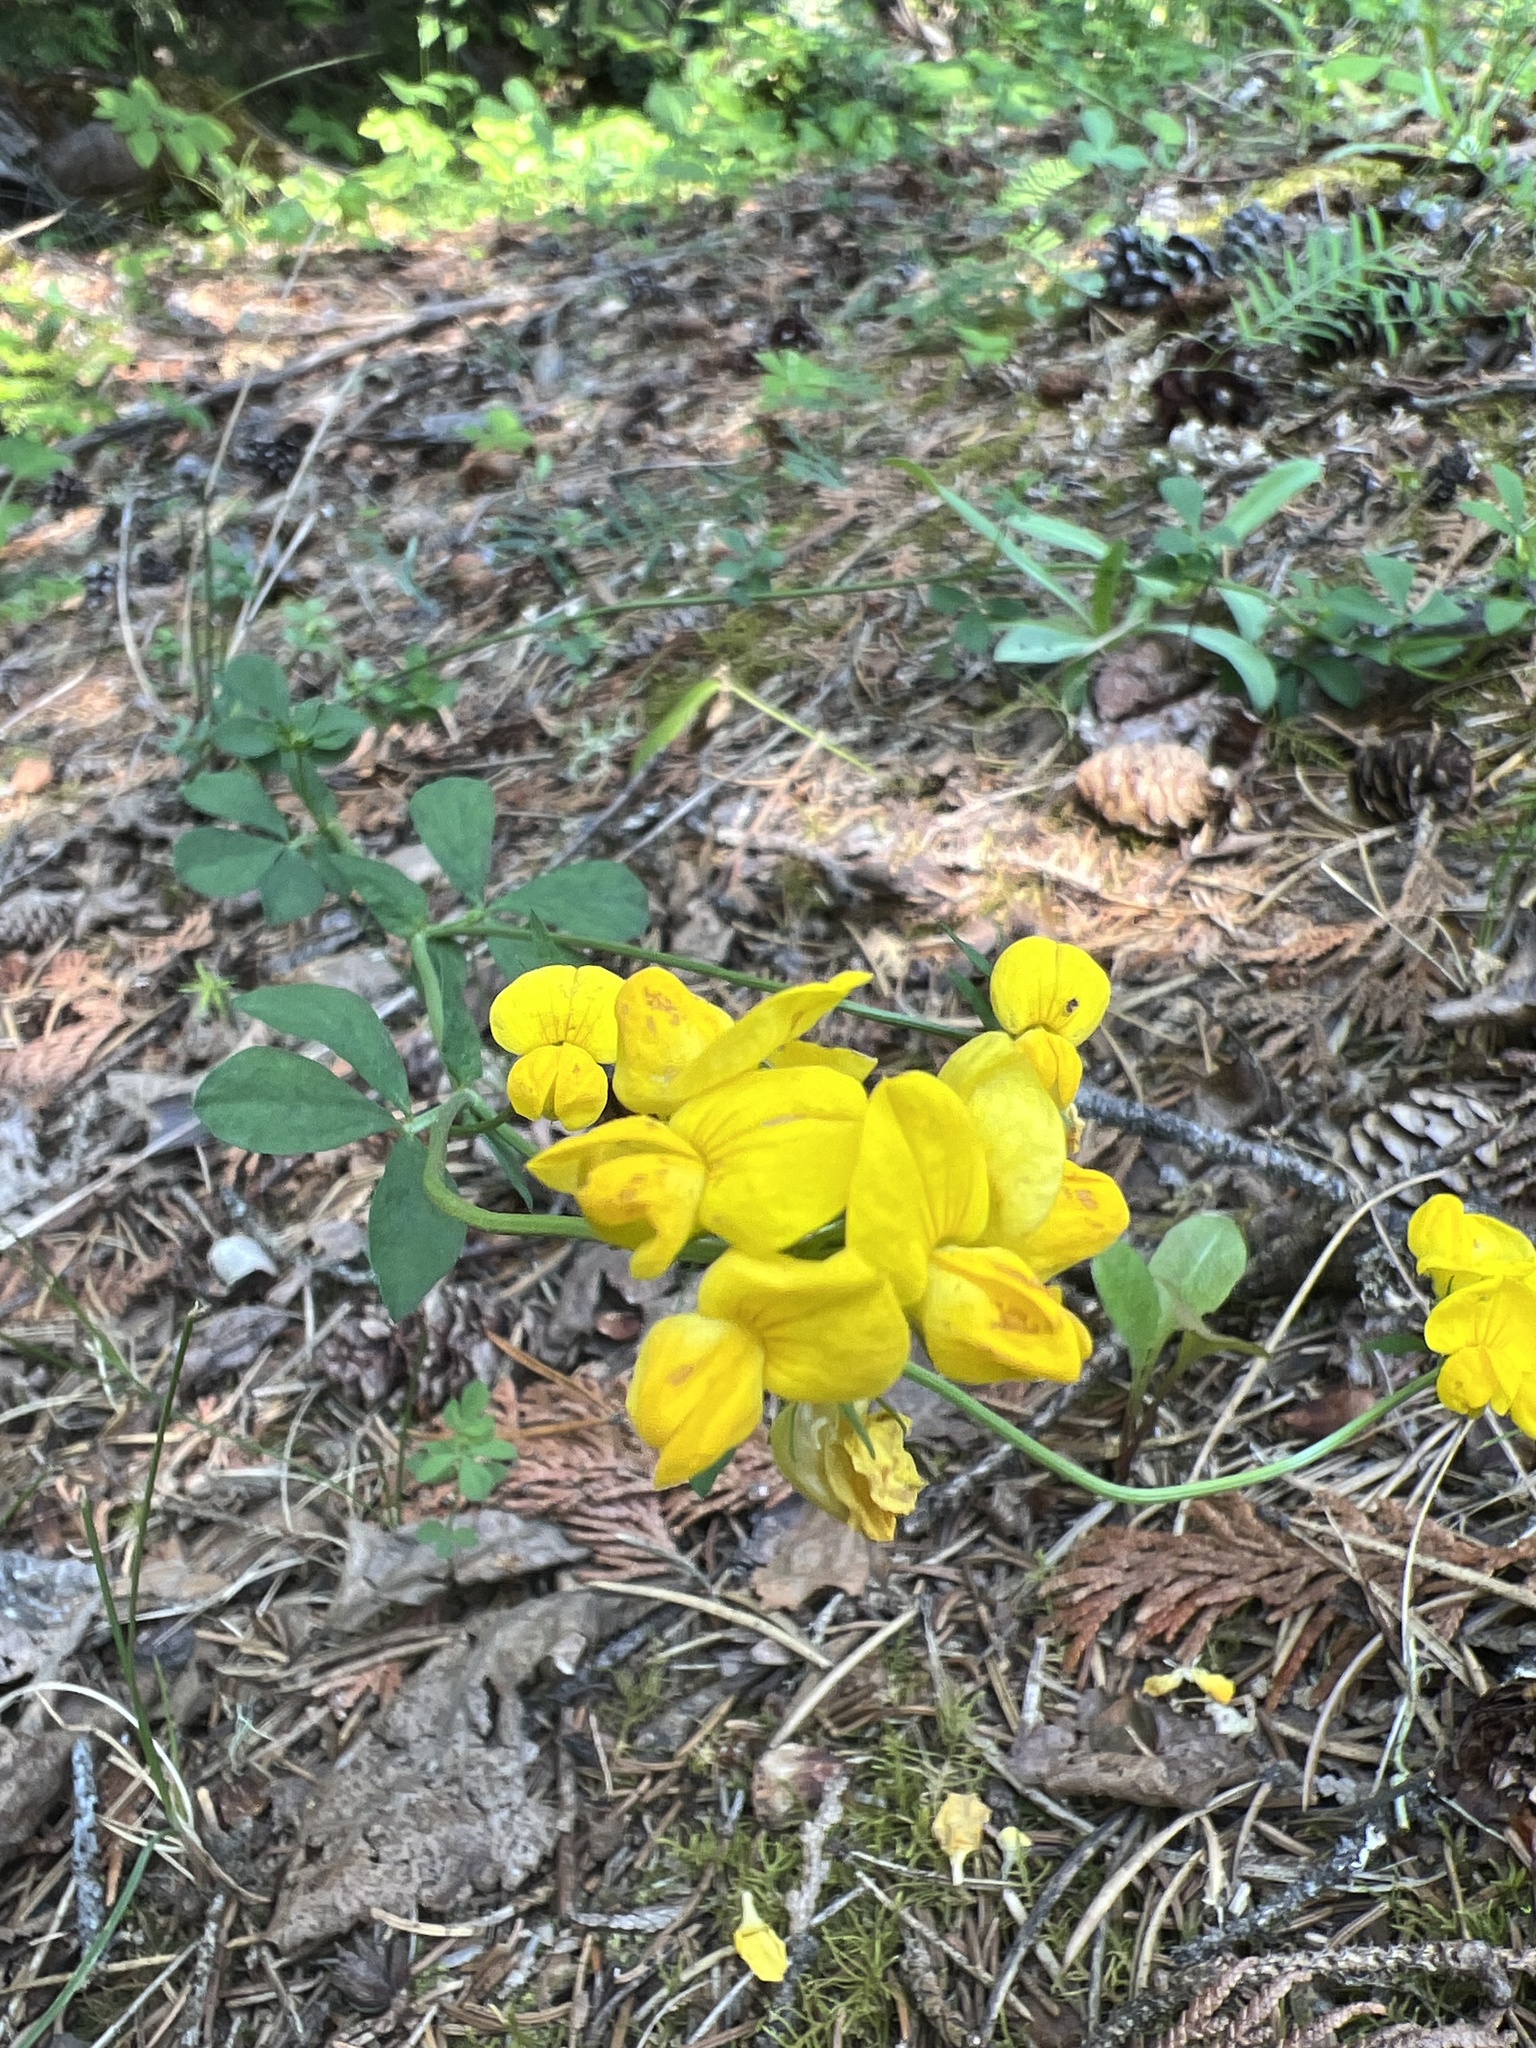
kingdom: Plantae
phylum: Tracheophyta
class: Magnoliopsida
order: Fabales
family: Fabaceae
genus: Lotus
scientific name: Lotus corniculatus
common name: Common bird's-foot-trefoil
